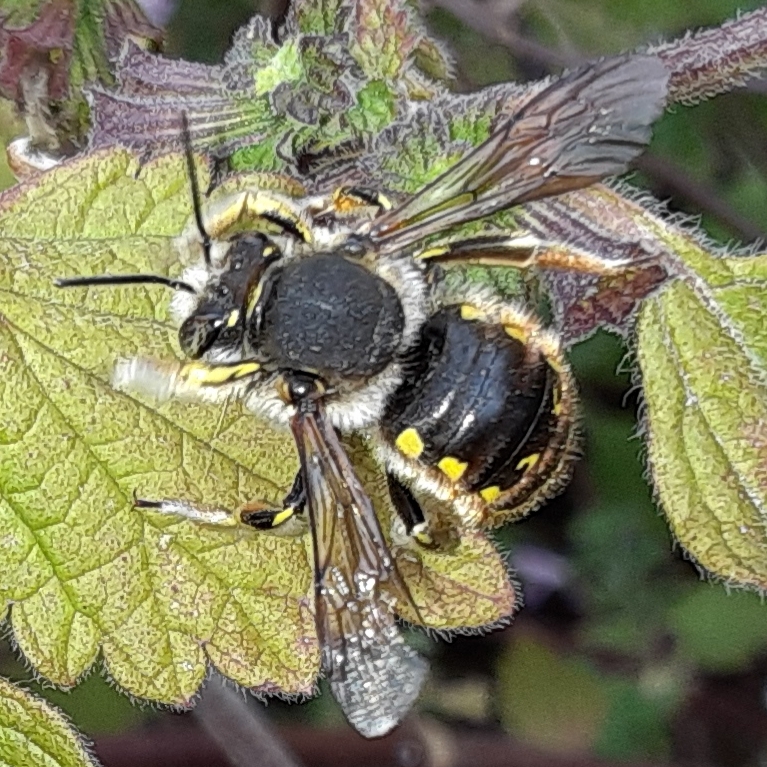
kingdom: Animalia
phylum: Arthropoda
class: Insecta
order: Hymenoptera
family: Megachilidae
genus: Anthidium
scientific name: Anthidium manicatum
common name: Wool carder bee
